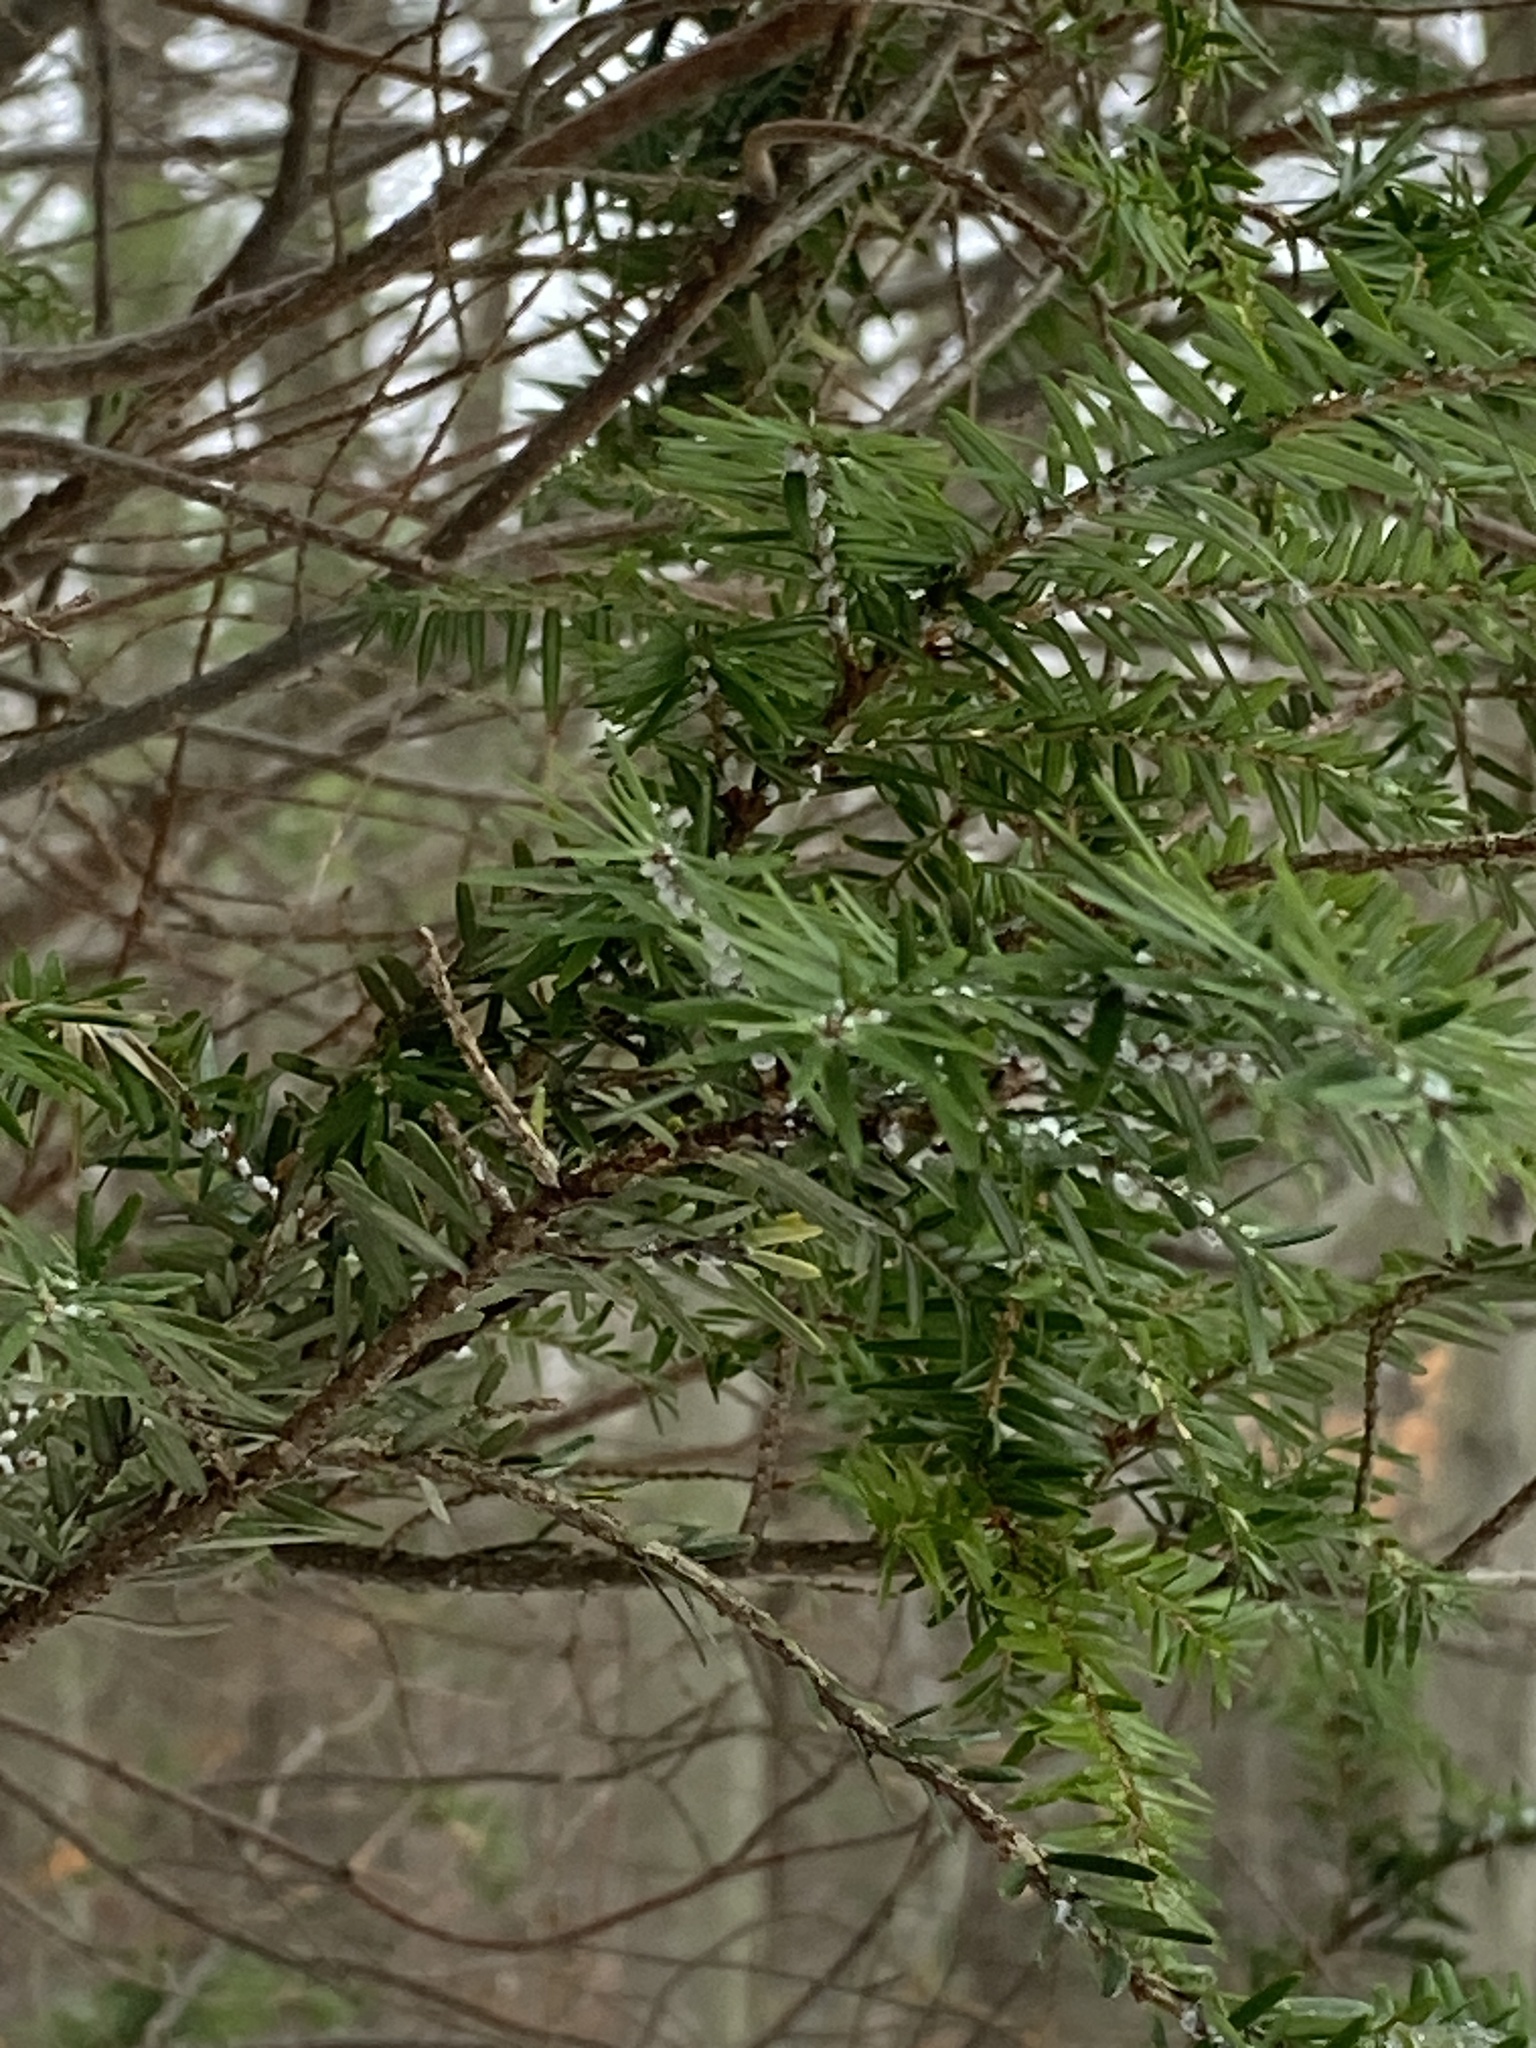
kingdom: Plantae
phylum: Tracheophyta
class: Pinopsida
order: Pinales
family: Pinaceae
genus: Tsuga
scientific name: Tsuga canadensis
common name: Eastern hemlock
